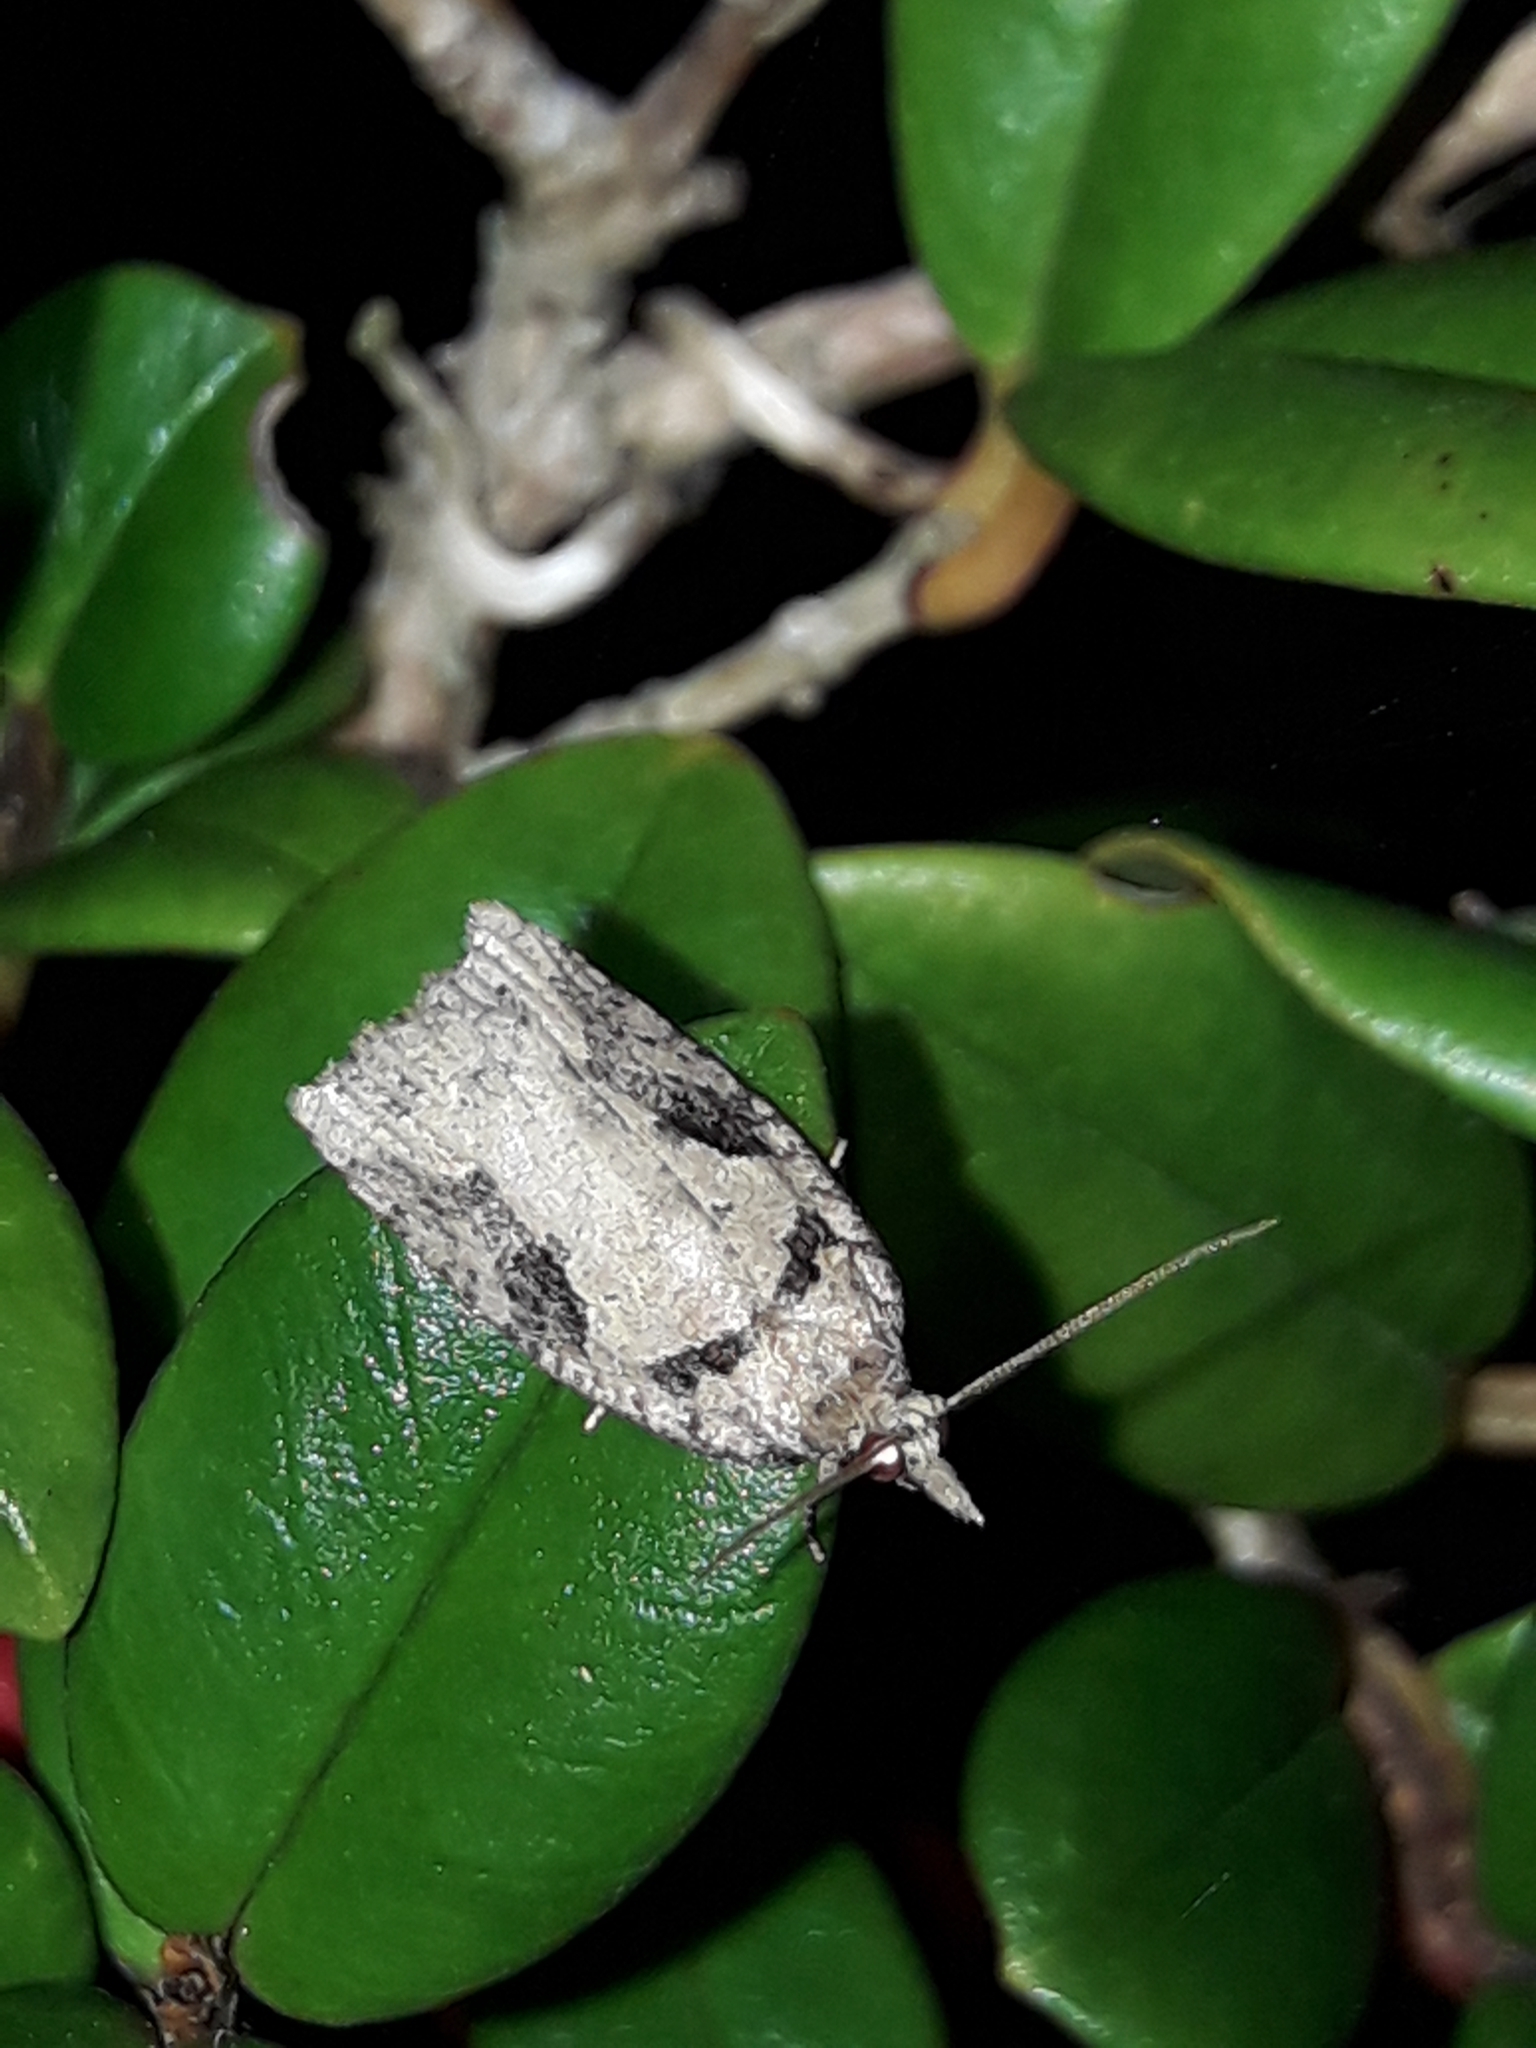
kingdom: Animalia
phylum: Arthropoda
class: Insecta
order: Lepidoptera
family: Tortricidae
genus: Ctenopseustis
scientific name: Ctenopseustis obliquana
